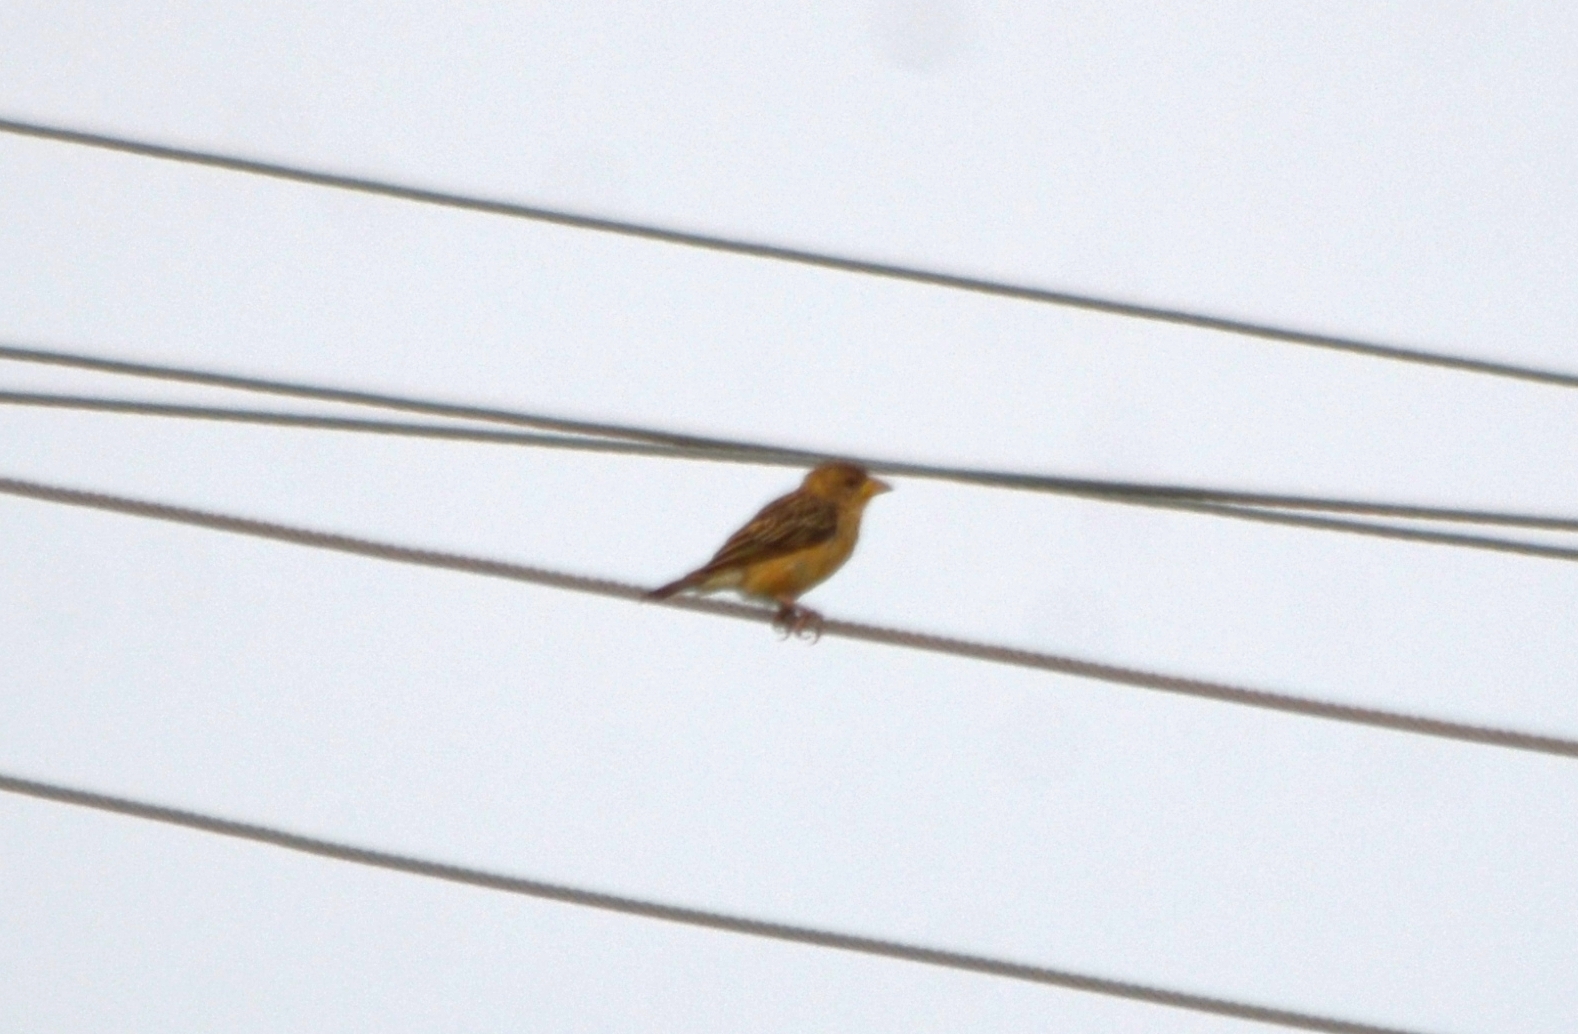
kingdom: Animalia
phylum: Chordata
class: Aves
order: Passeriformes
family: Ploceidae
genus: Ploceus
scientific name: Ploceus philippinus
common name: Baya weaver
